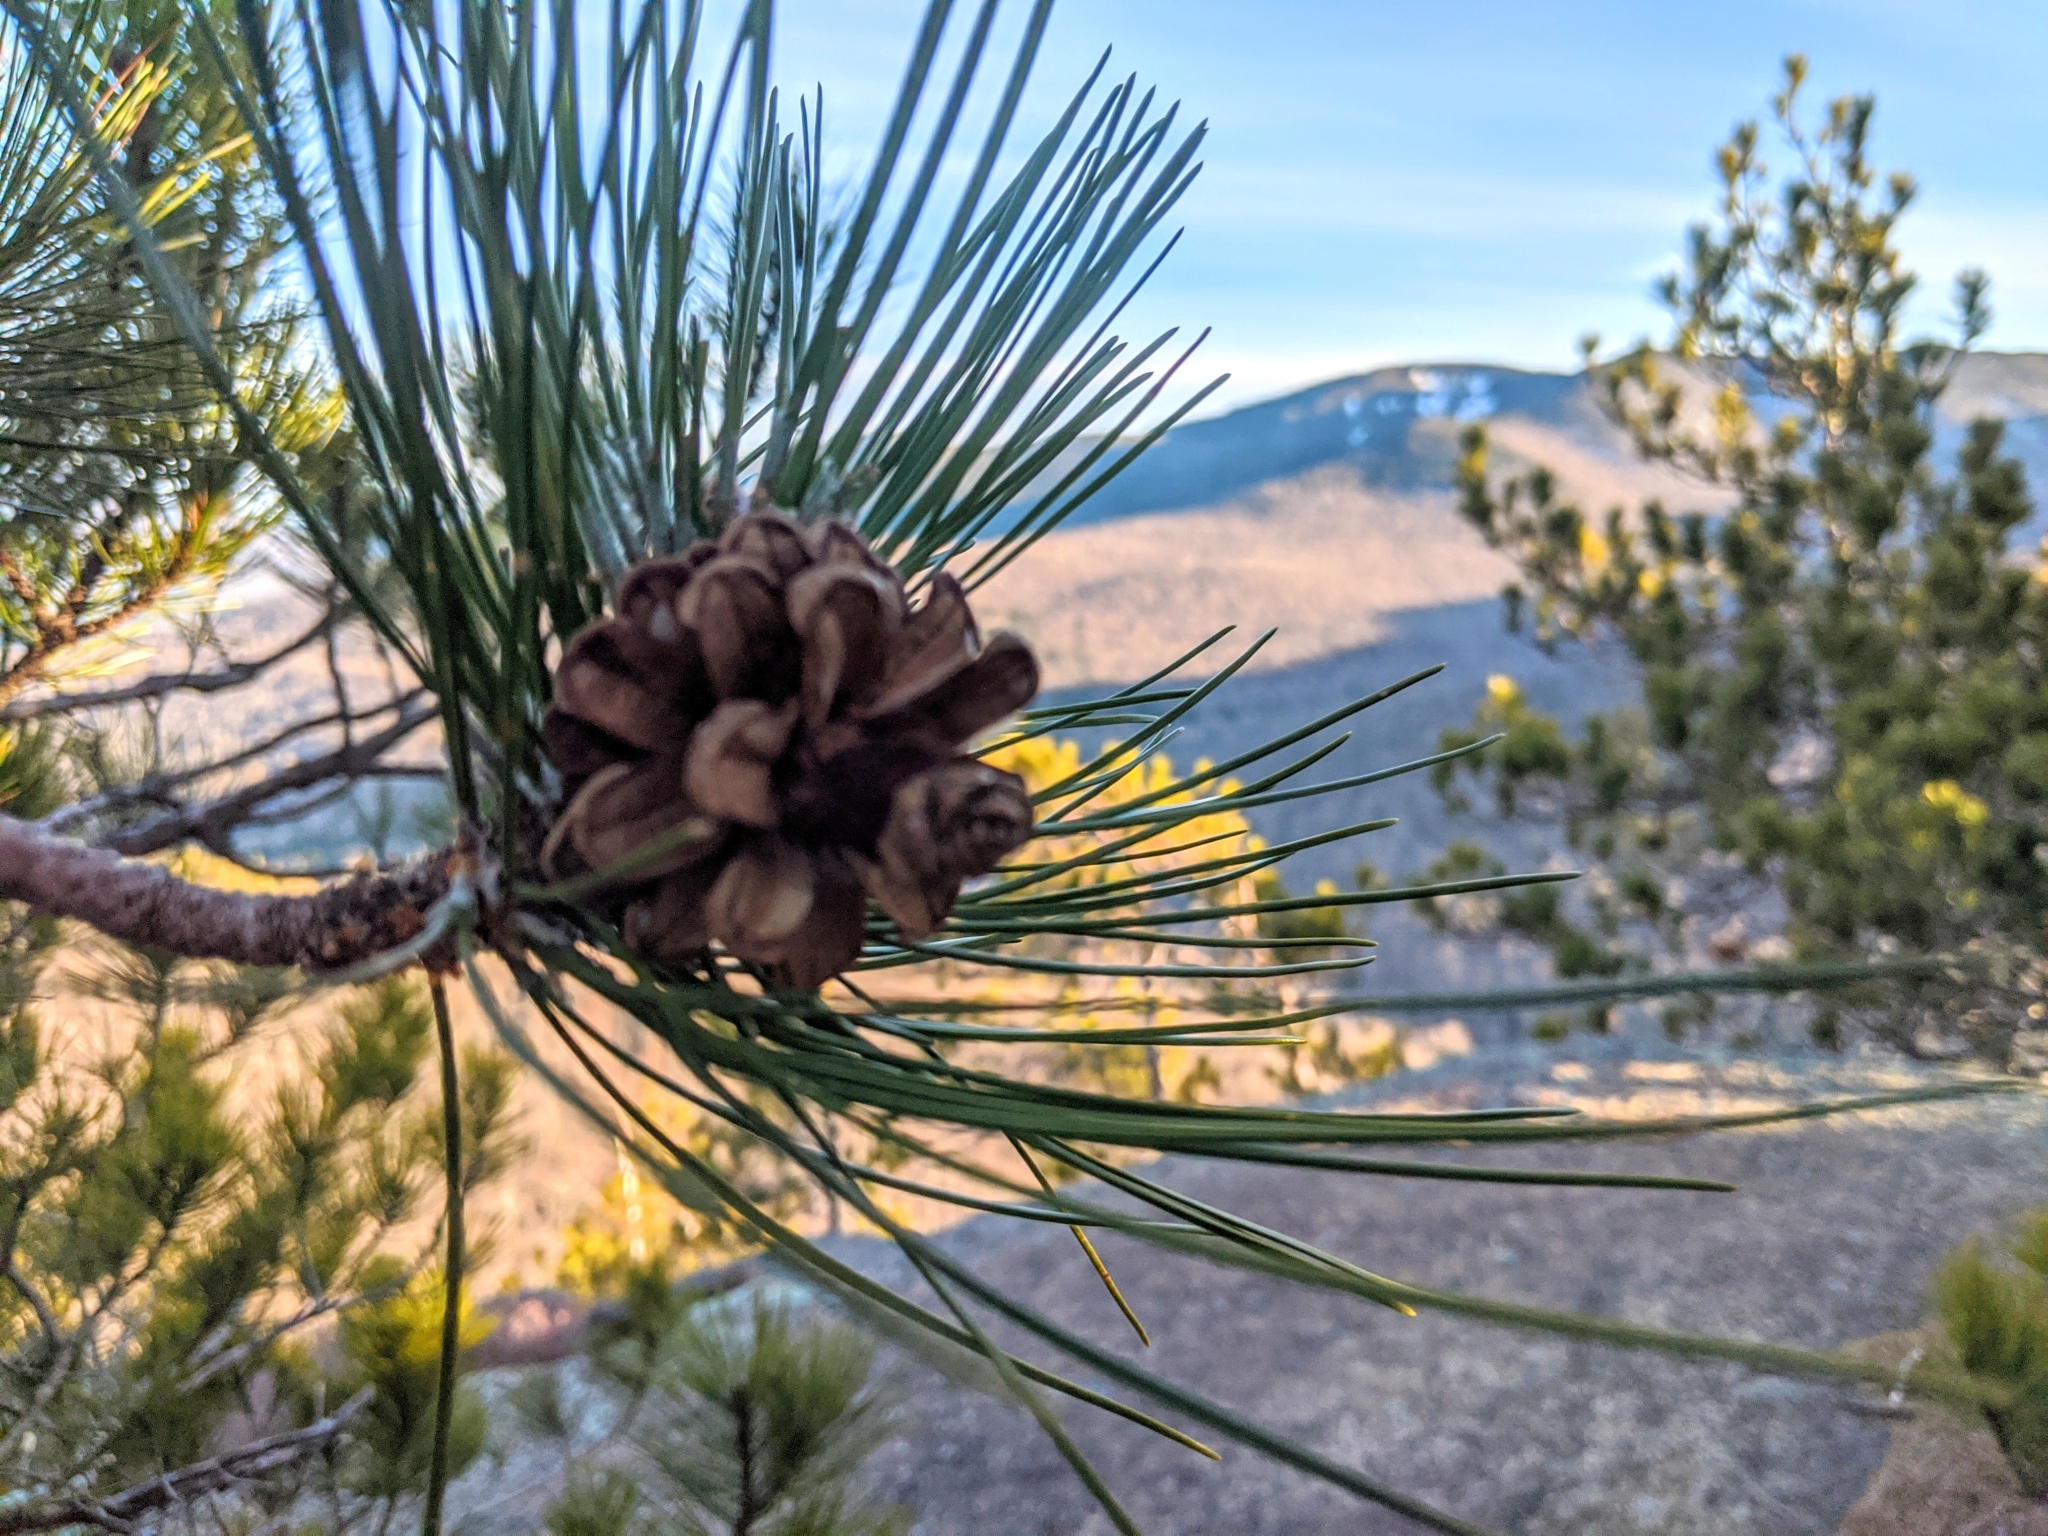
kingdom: Plantae
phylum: Tracheophyta
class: Pinopsida
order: Pinales
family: Pinaceae
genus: Pinus
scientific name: Pinus resinosa
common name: Norway pine
